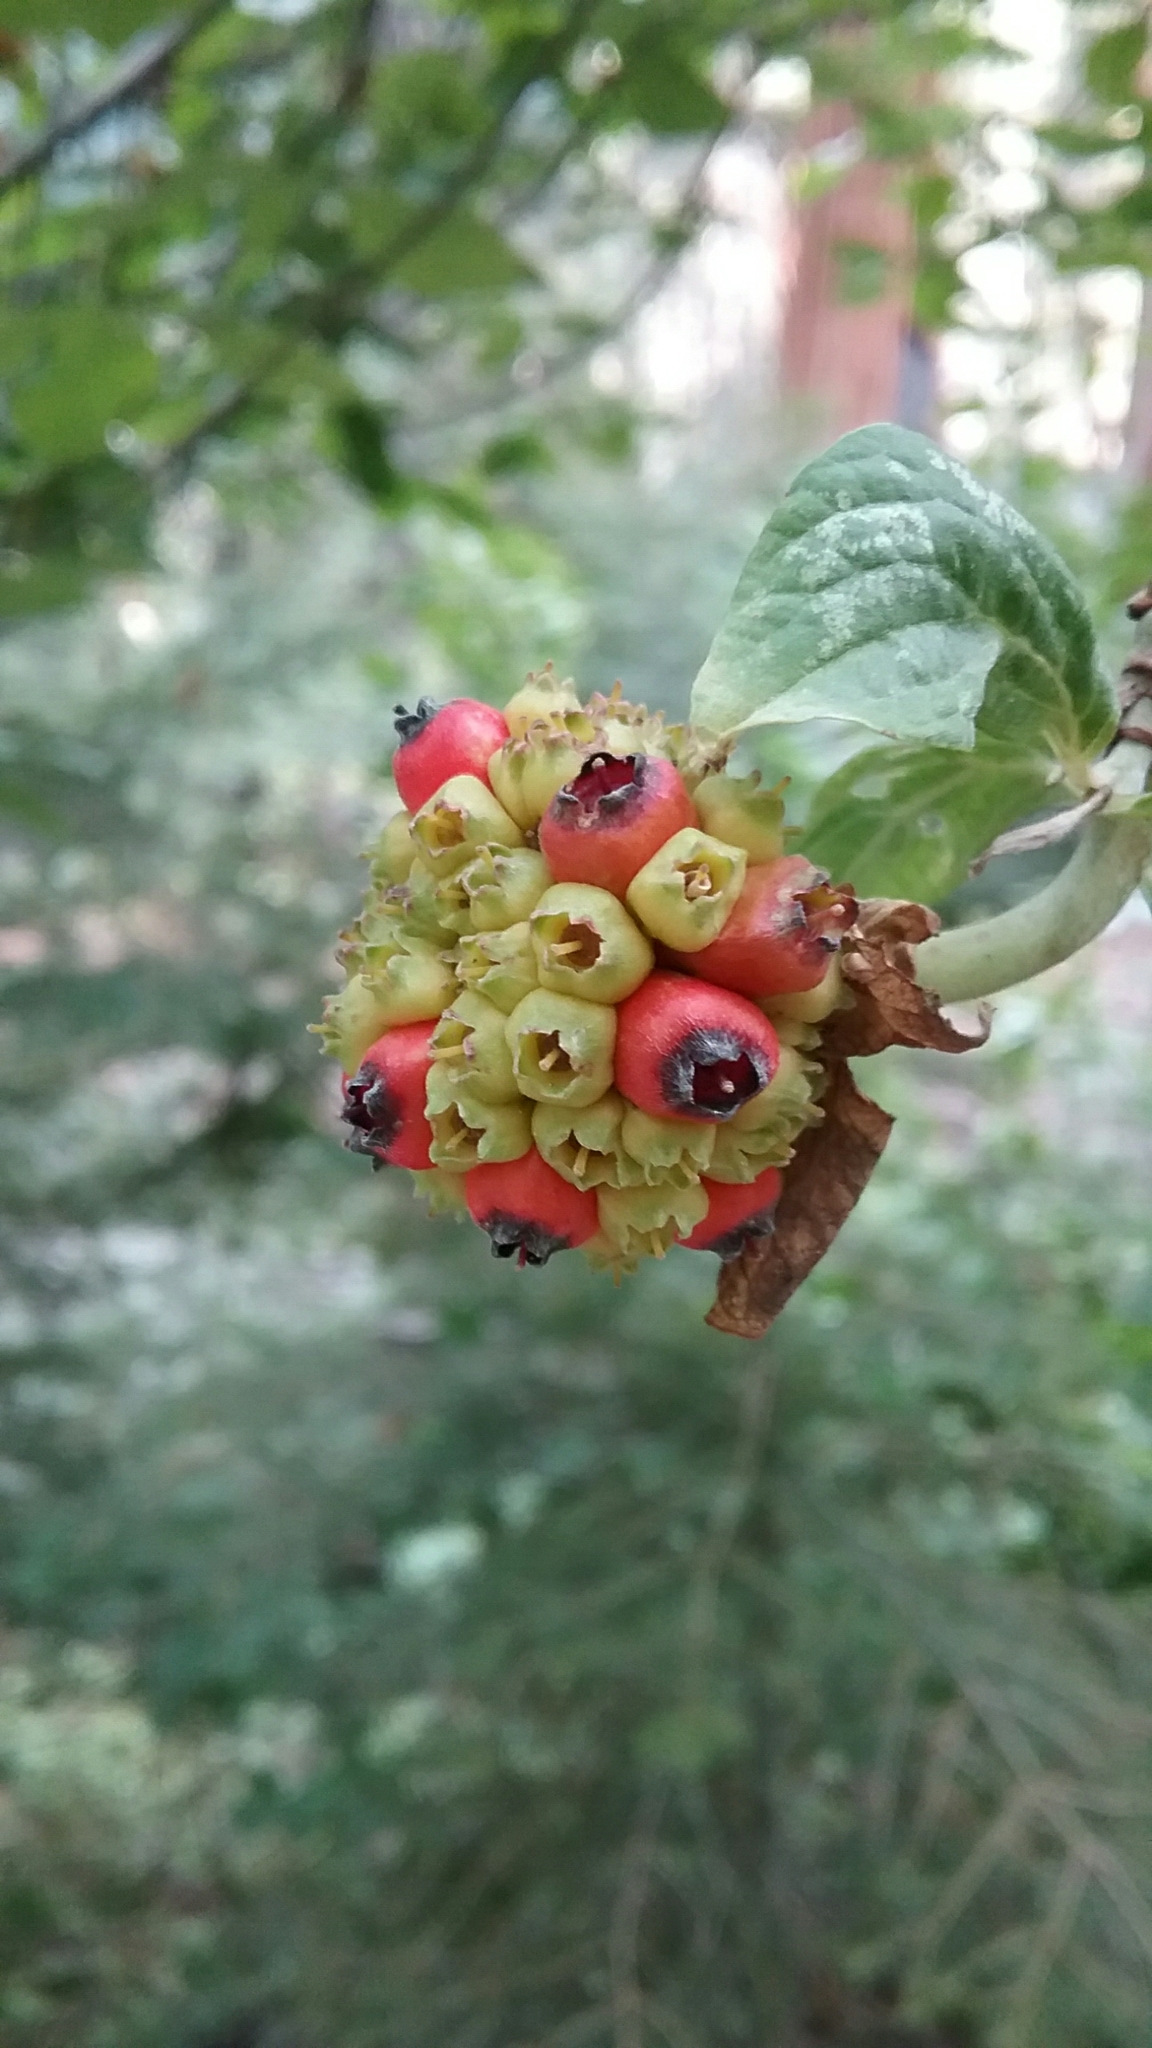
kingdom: Plantae
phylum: Tracheophyta
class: Magnoliopsida
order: Cornales
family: Cornaceae
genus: Cornus
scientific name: Cornus nuttallii
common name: Pacific dogwood
